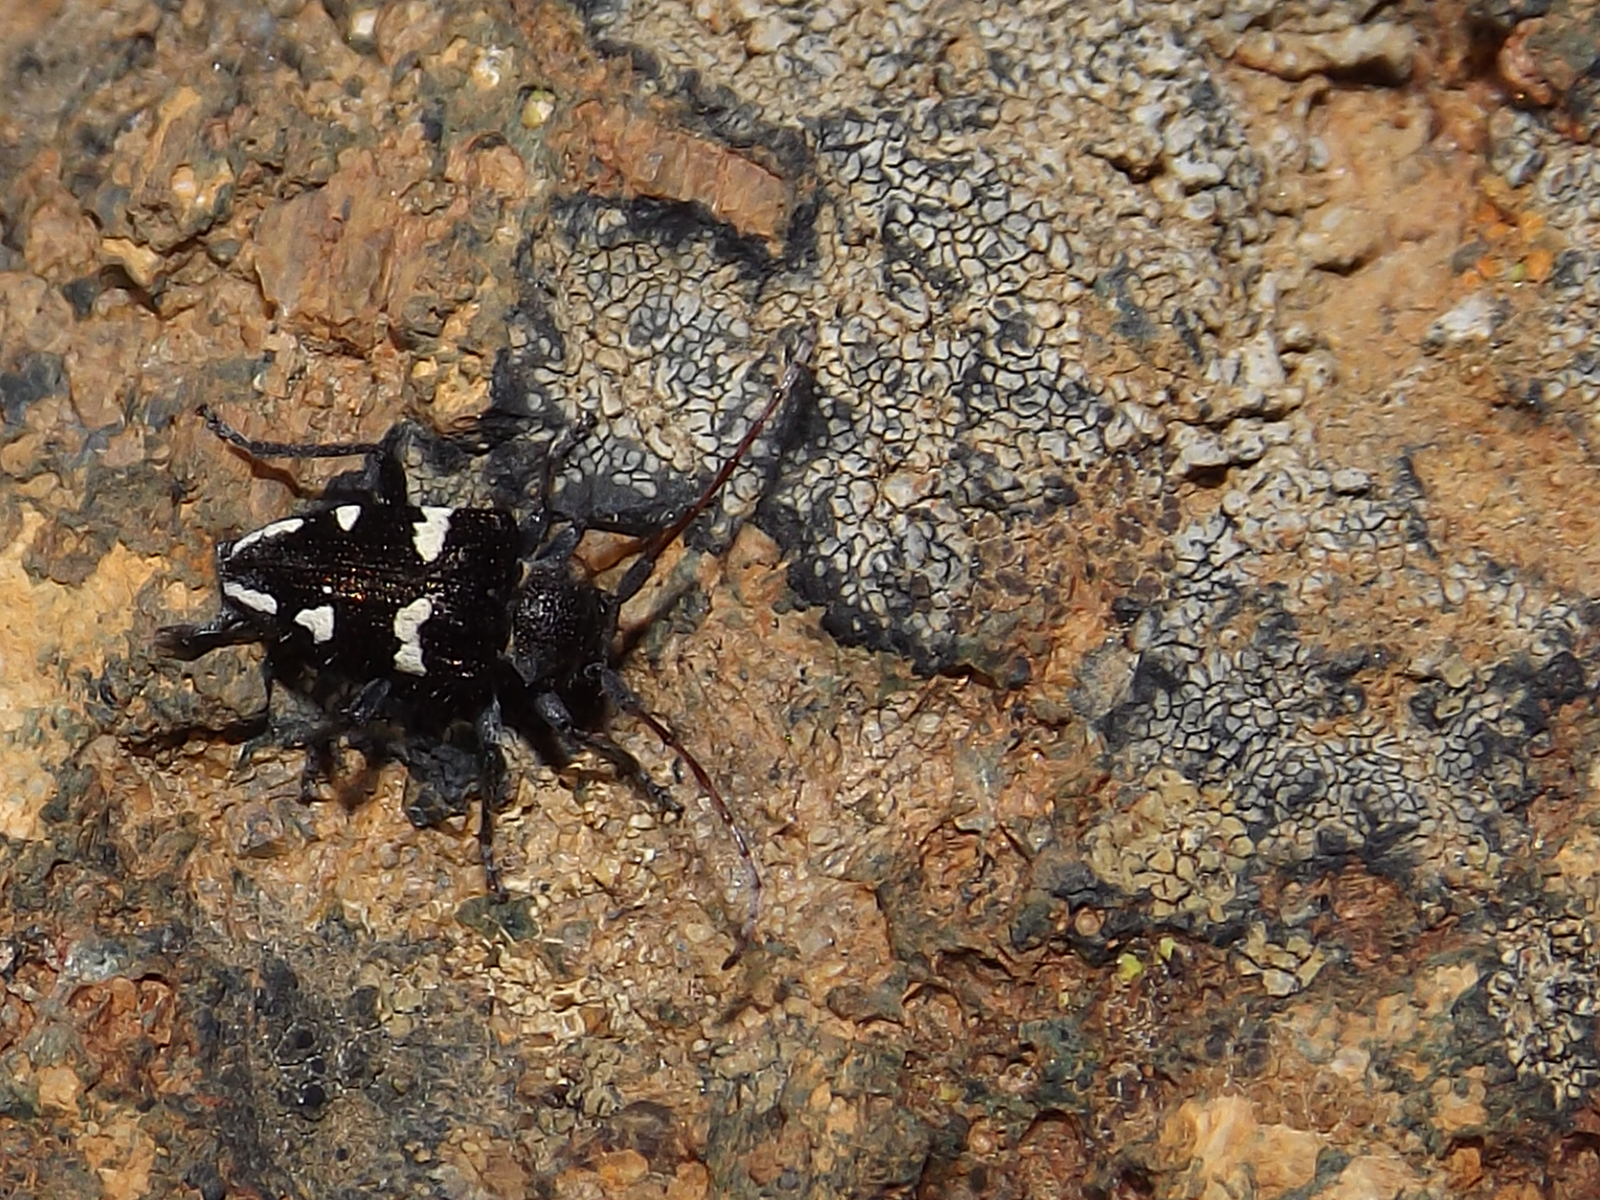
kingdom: Animalia
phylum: Arthropoda
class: Insecta
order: Coleoptera
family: Cerambycidae
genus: Brachychilus
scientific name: Brachychilus lituratus
